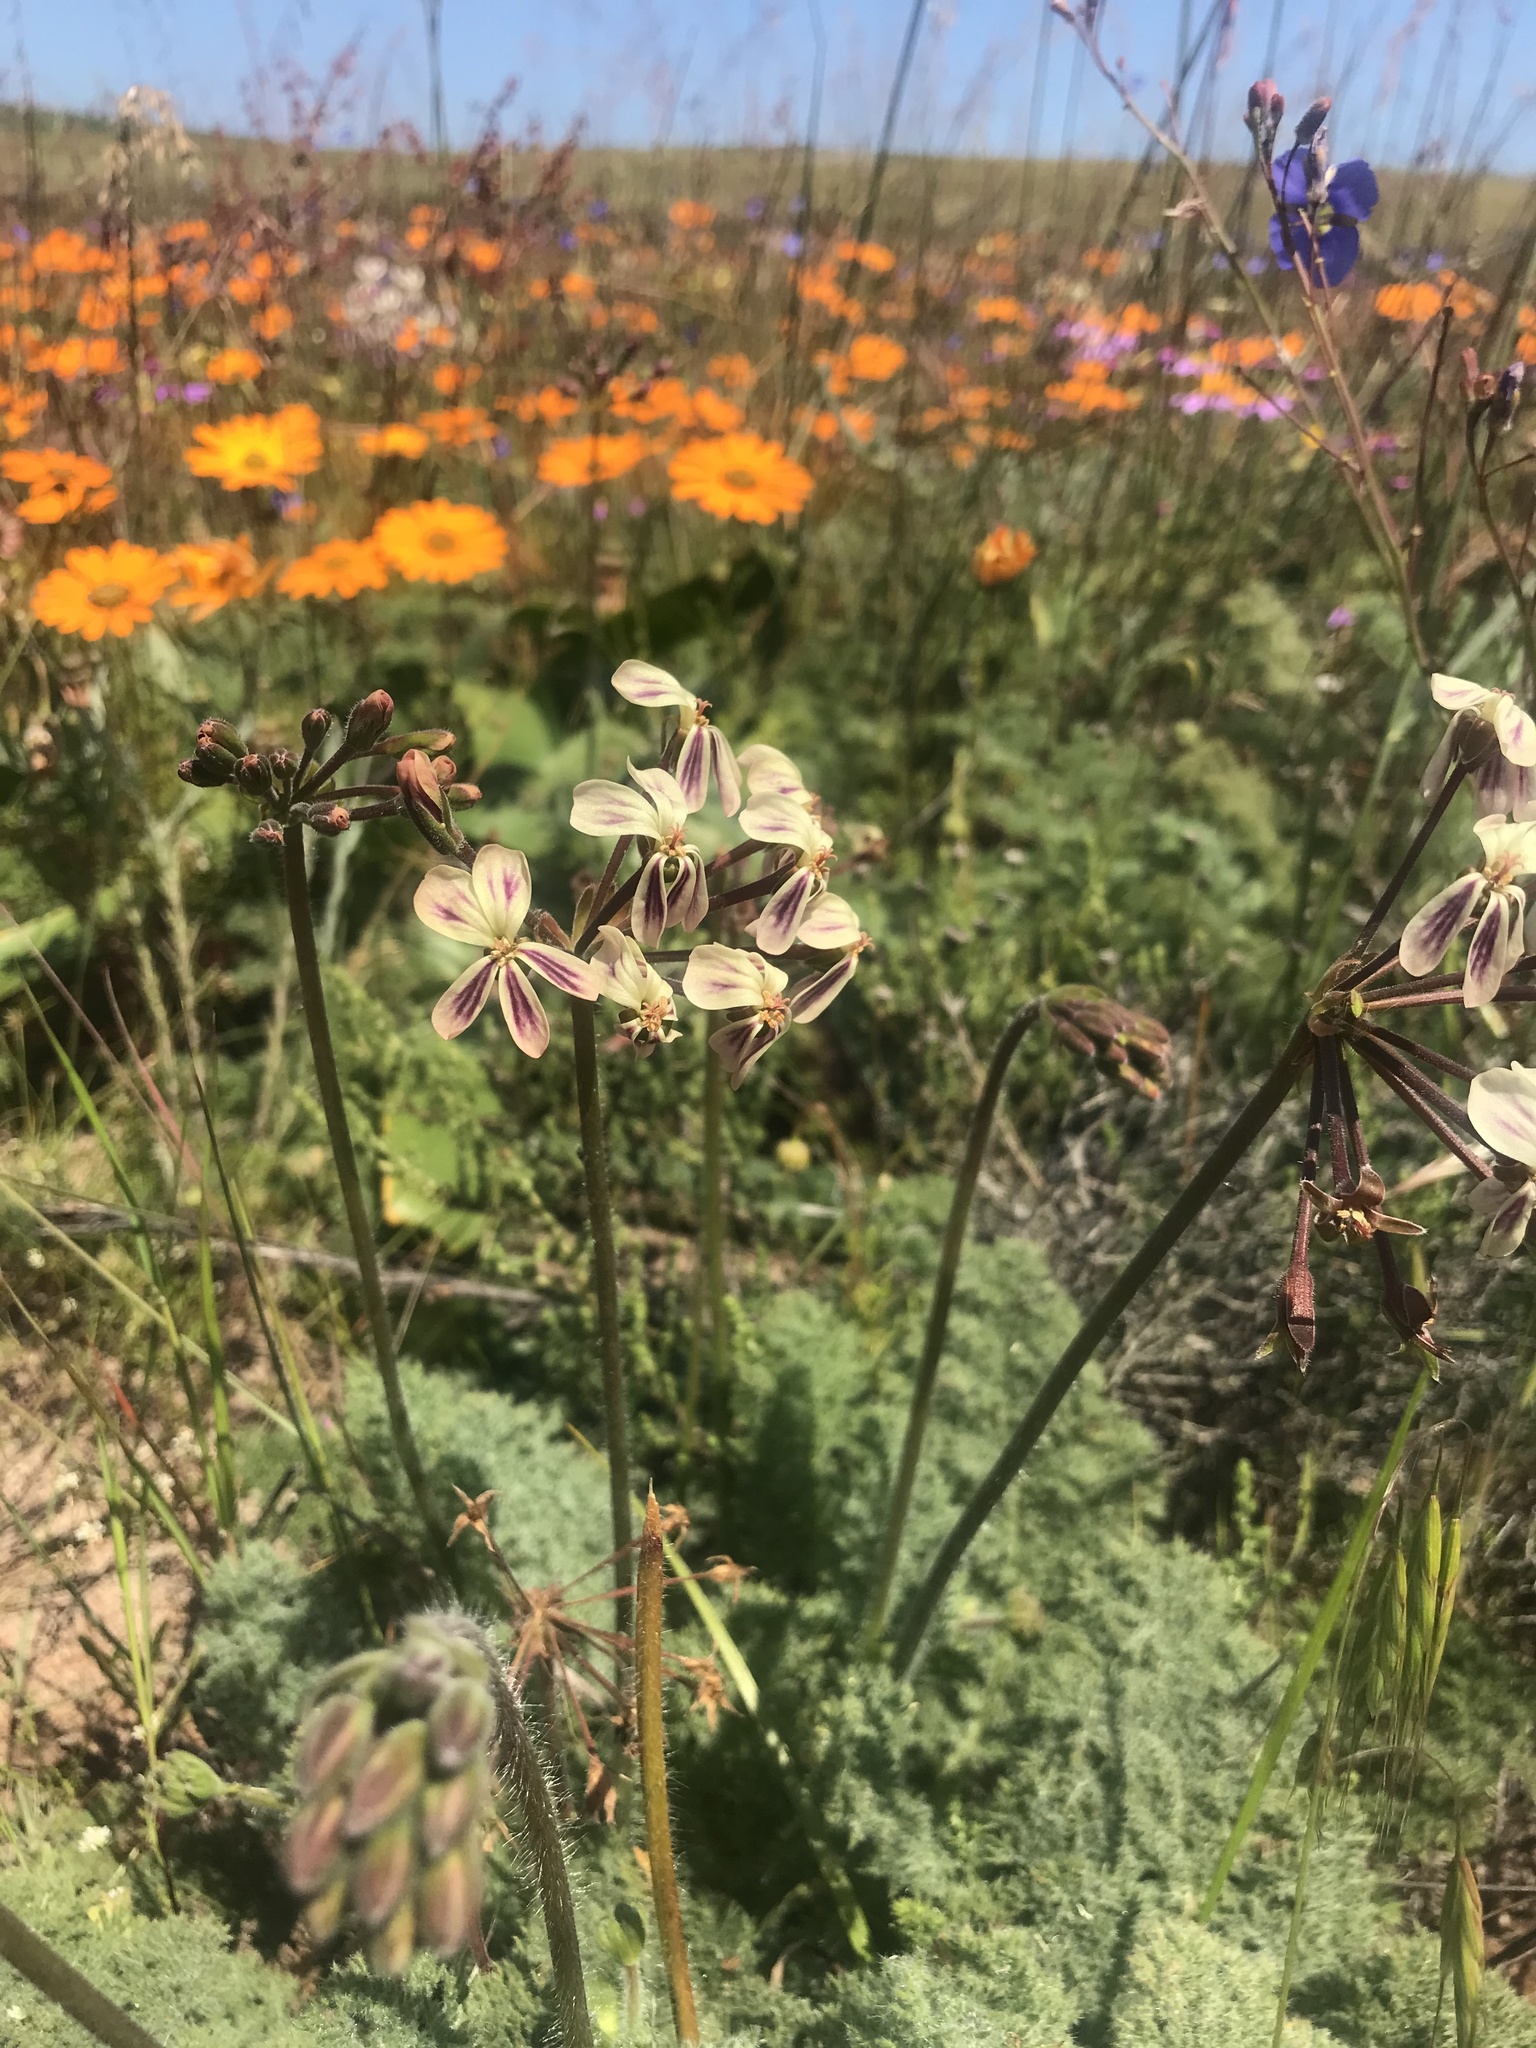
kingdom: Plantae
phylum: Tracheophyta
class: Magnoliopsida
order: Geraniales
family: Geraniaceae
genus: Pelargonium
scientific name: Pelargonium triste
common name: Night-scent pelargonium
